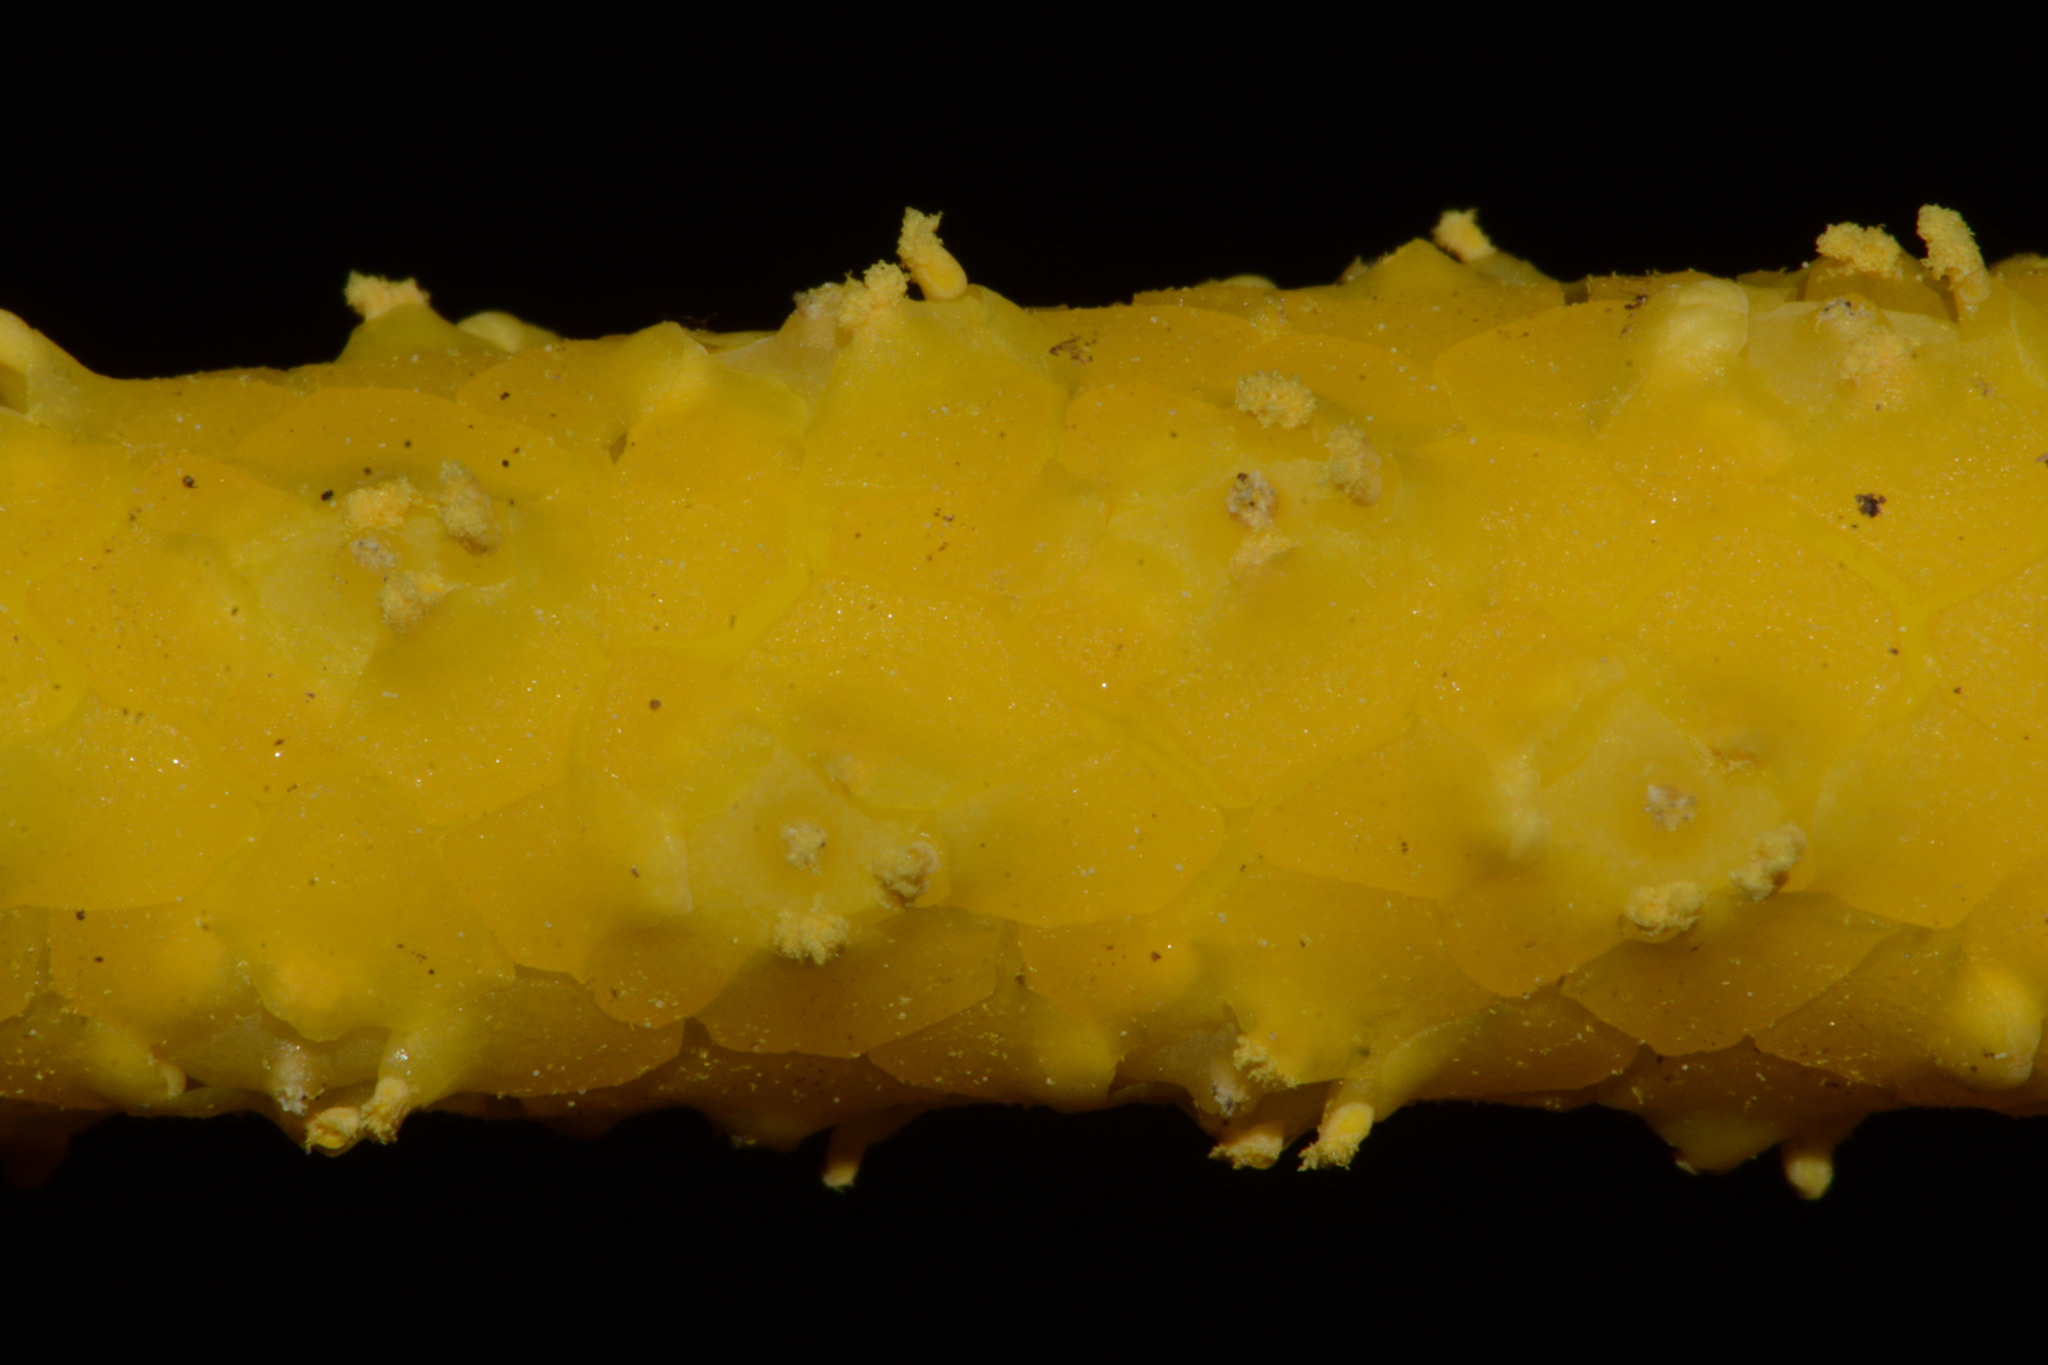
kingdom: Plantae
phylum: Tracheophyta
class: Liliopsida
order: Alismatales
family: Araceae
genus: Orontium
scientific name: Orontium aquaticum
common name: Golden-club
